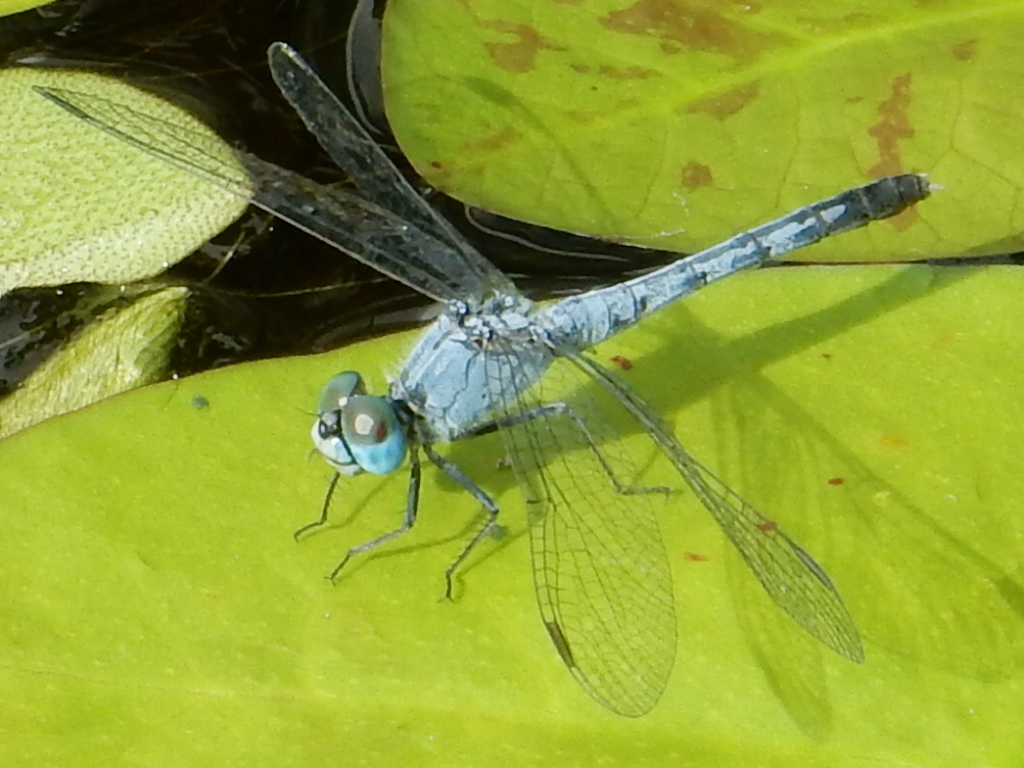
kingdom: Animalia
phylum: Arthropoda
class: Insecta
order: Odonata
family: Libellulidae
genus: Diplacodes
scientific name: Diplacodes trivialis
